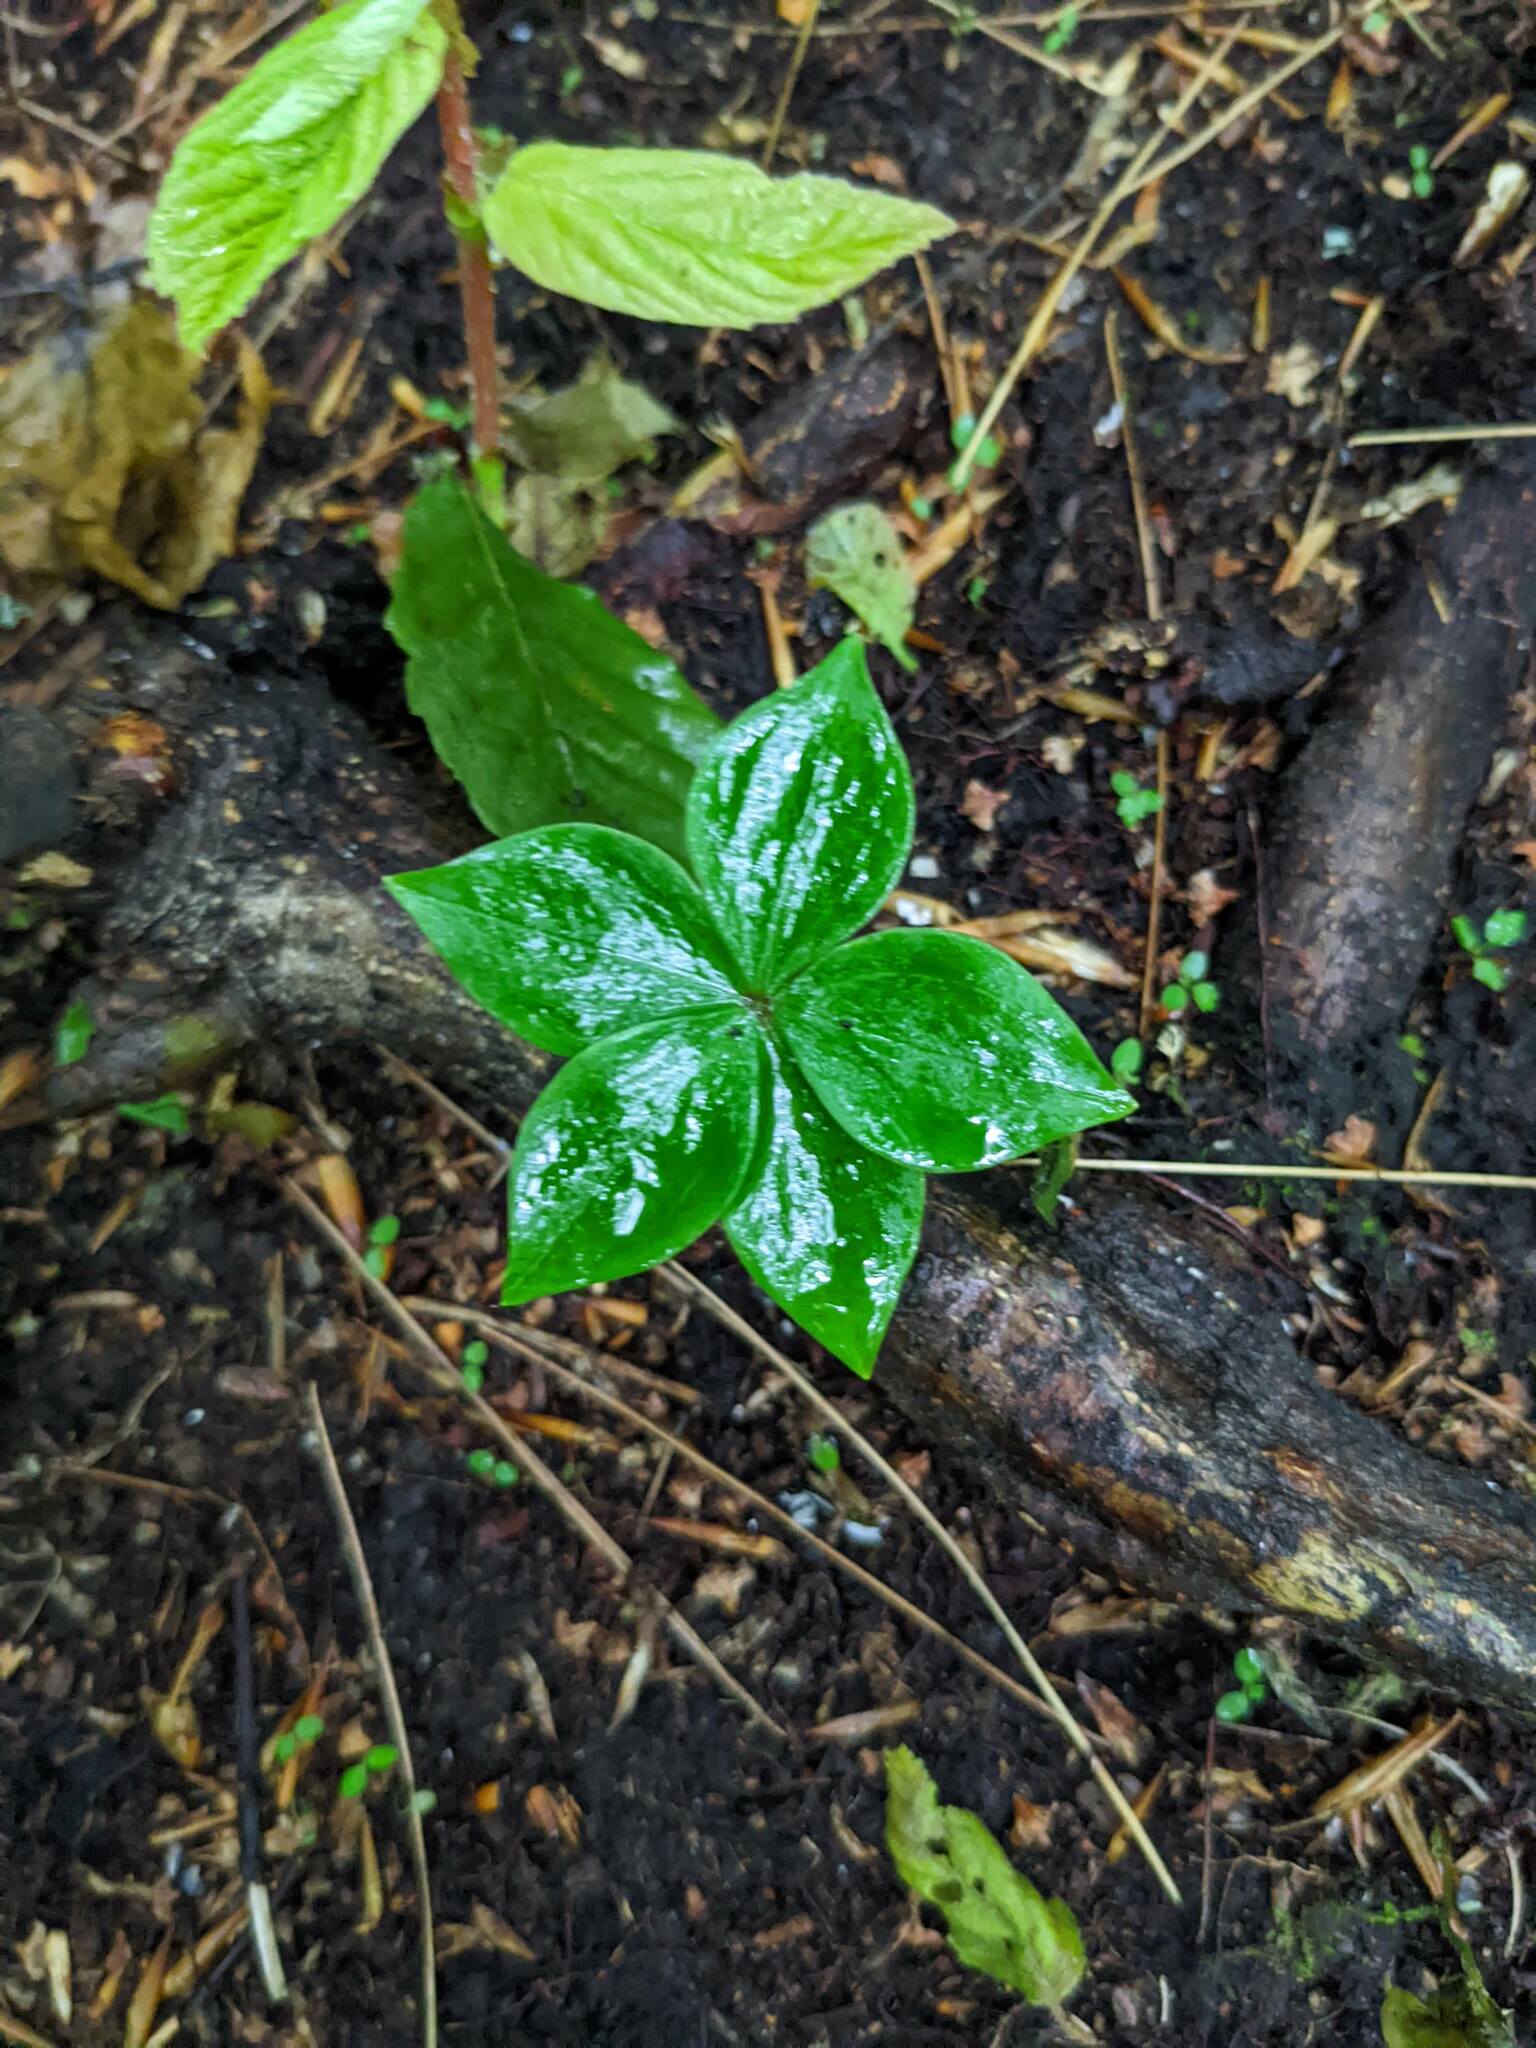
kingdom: Plantae
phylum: Tracheophyta
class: Liliopsida
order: Liliales
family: Liliaceae
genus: Medeola
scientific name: Medeola virginiana
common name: Indian cucumber-root
